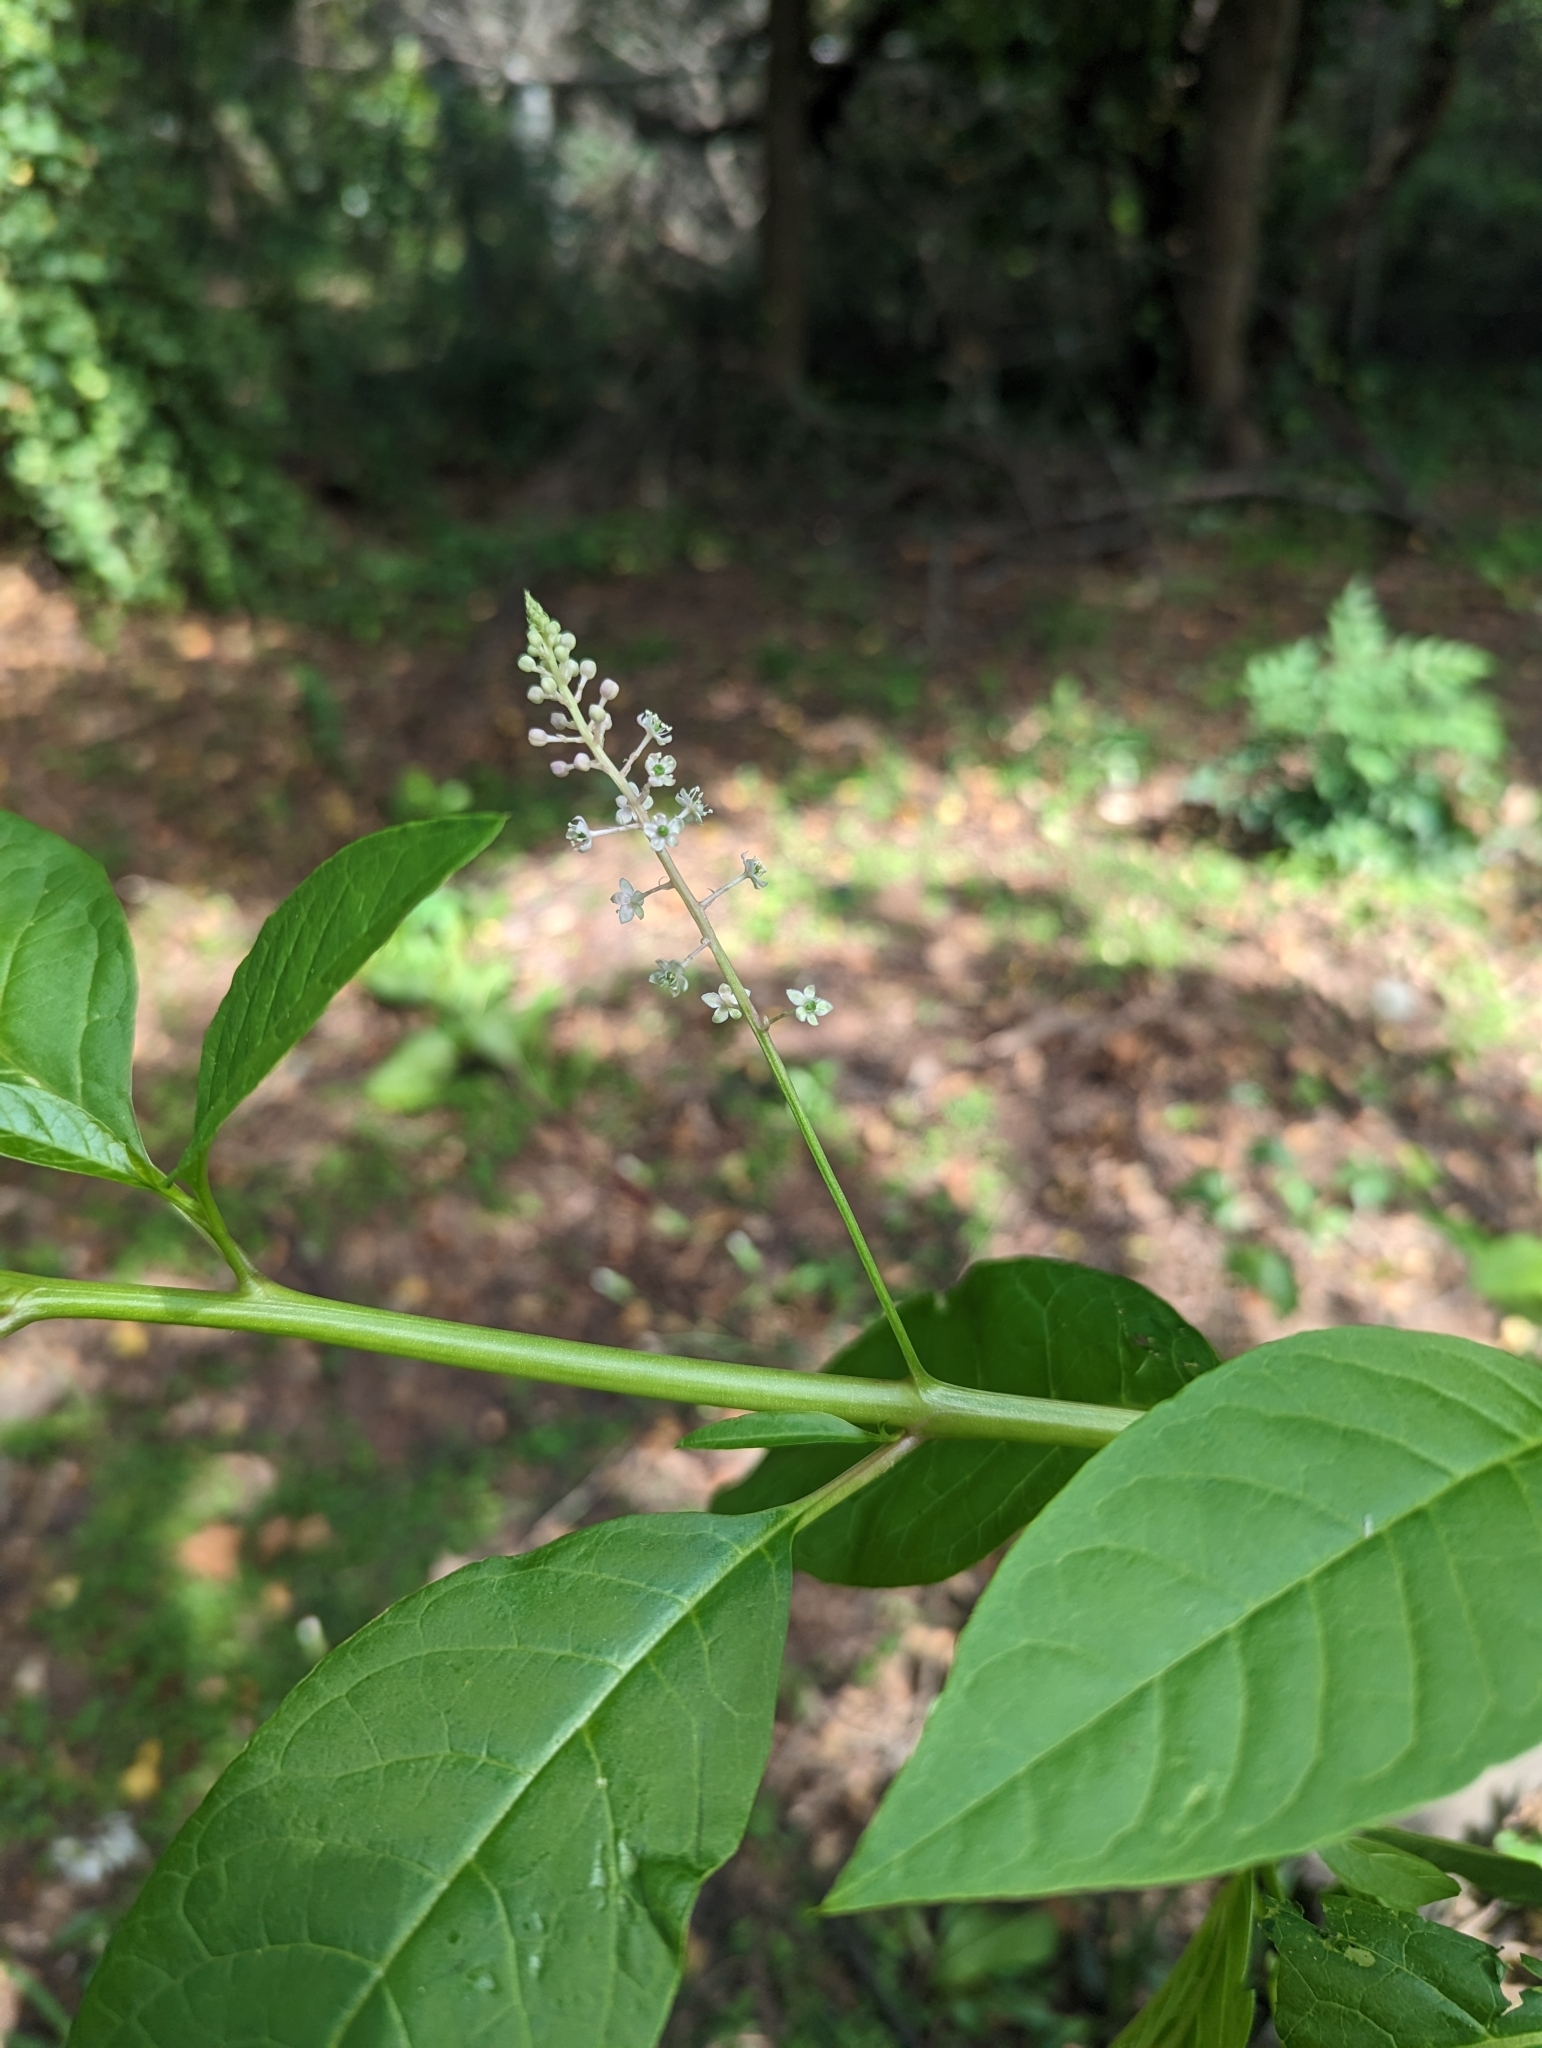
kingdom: Plantae
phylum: Tracheophyta
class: Magnoliopsida
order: Caryophyllales
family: Phytolaccaceae
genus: Phytolacca
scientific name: Phytolacca americana
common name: American pokeweed
